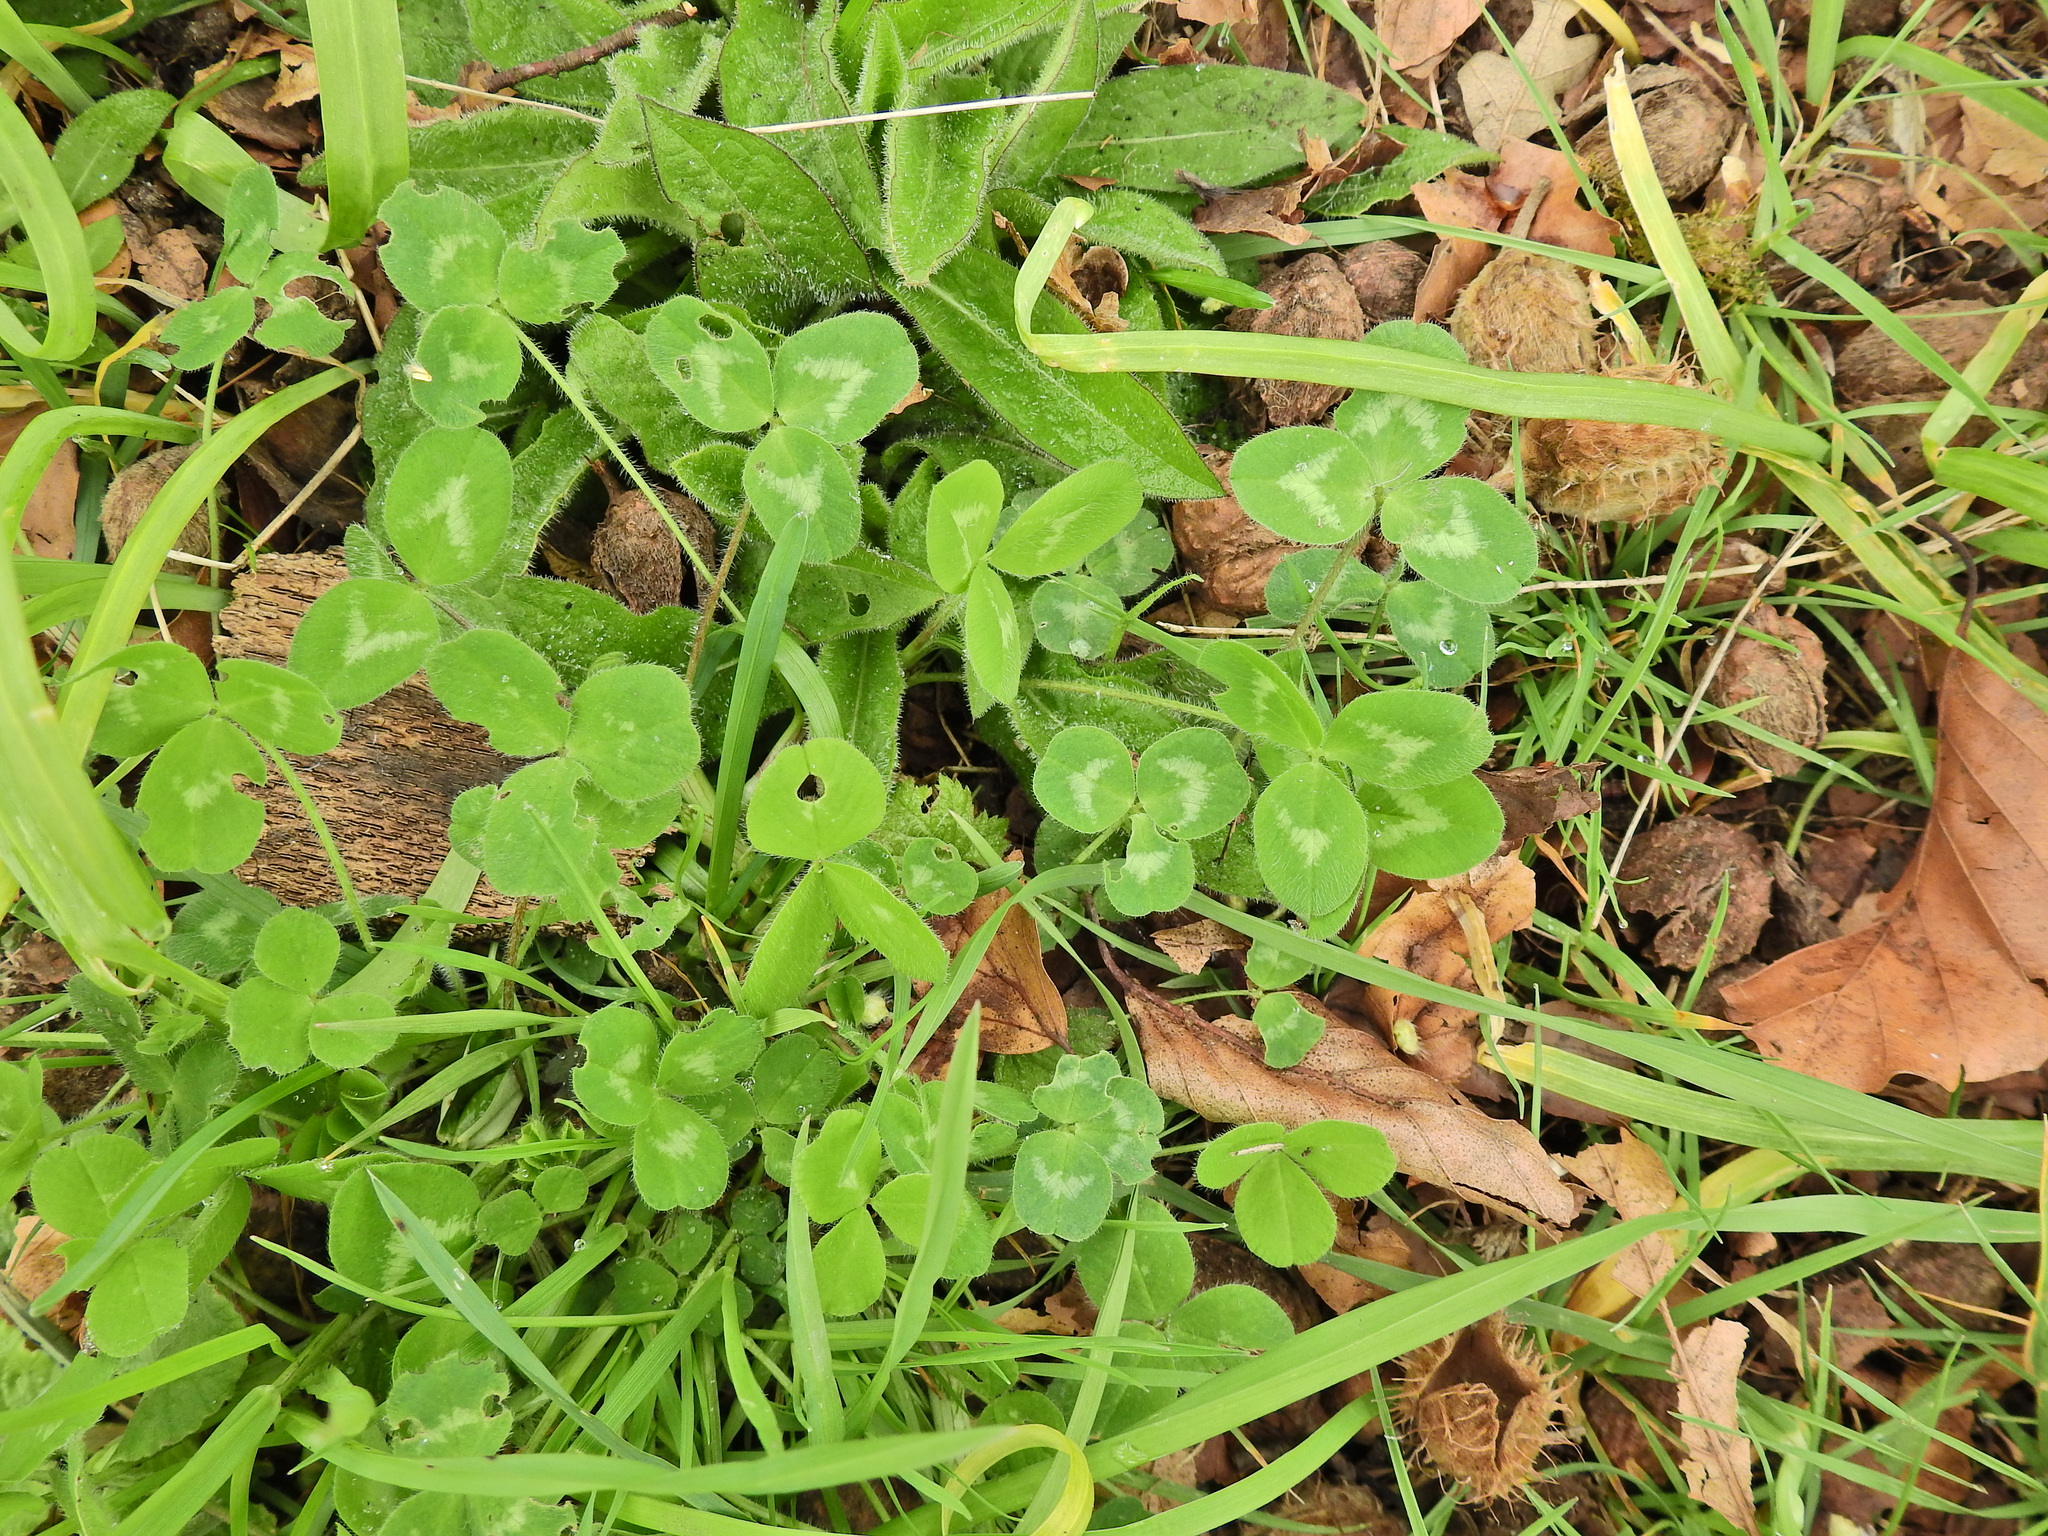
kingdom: Plantae
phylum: Tracheophyta
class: Magnoliopsida
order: Fabales
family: Fabaceae
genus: Trifolium
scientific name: Trifolium pratense
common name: Red clover
